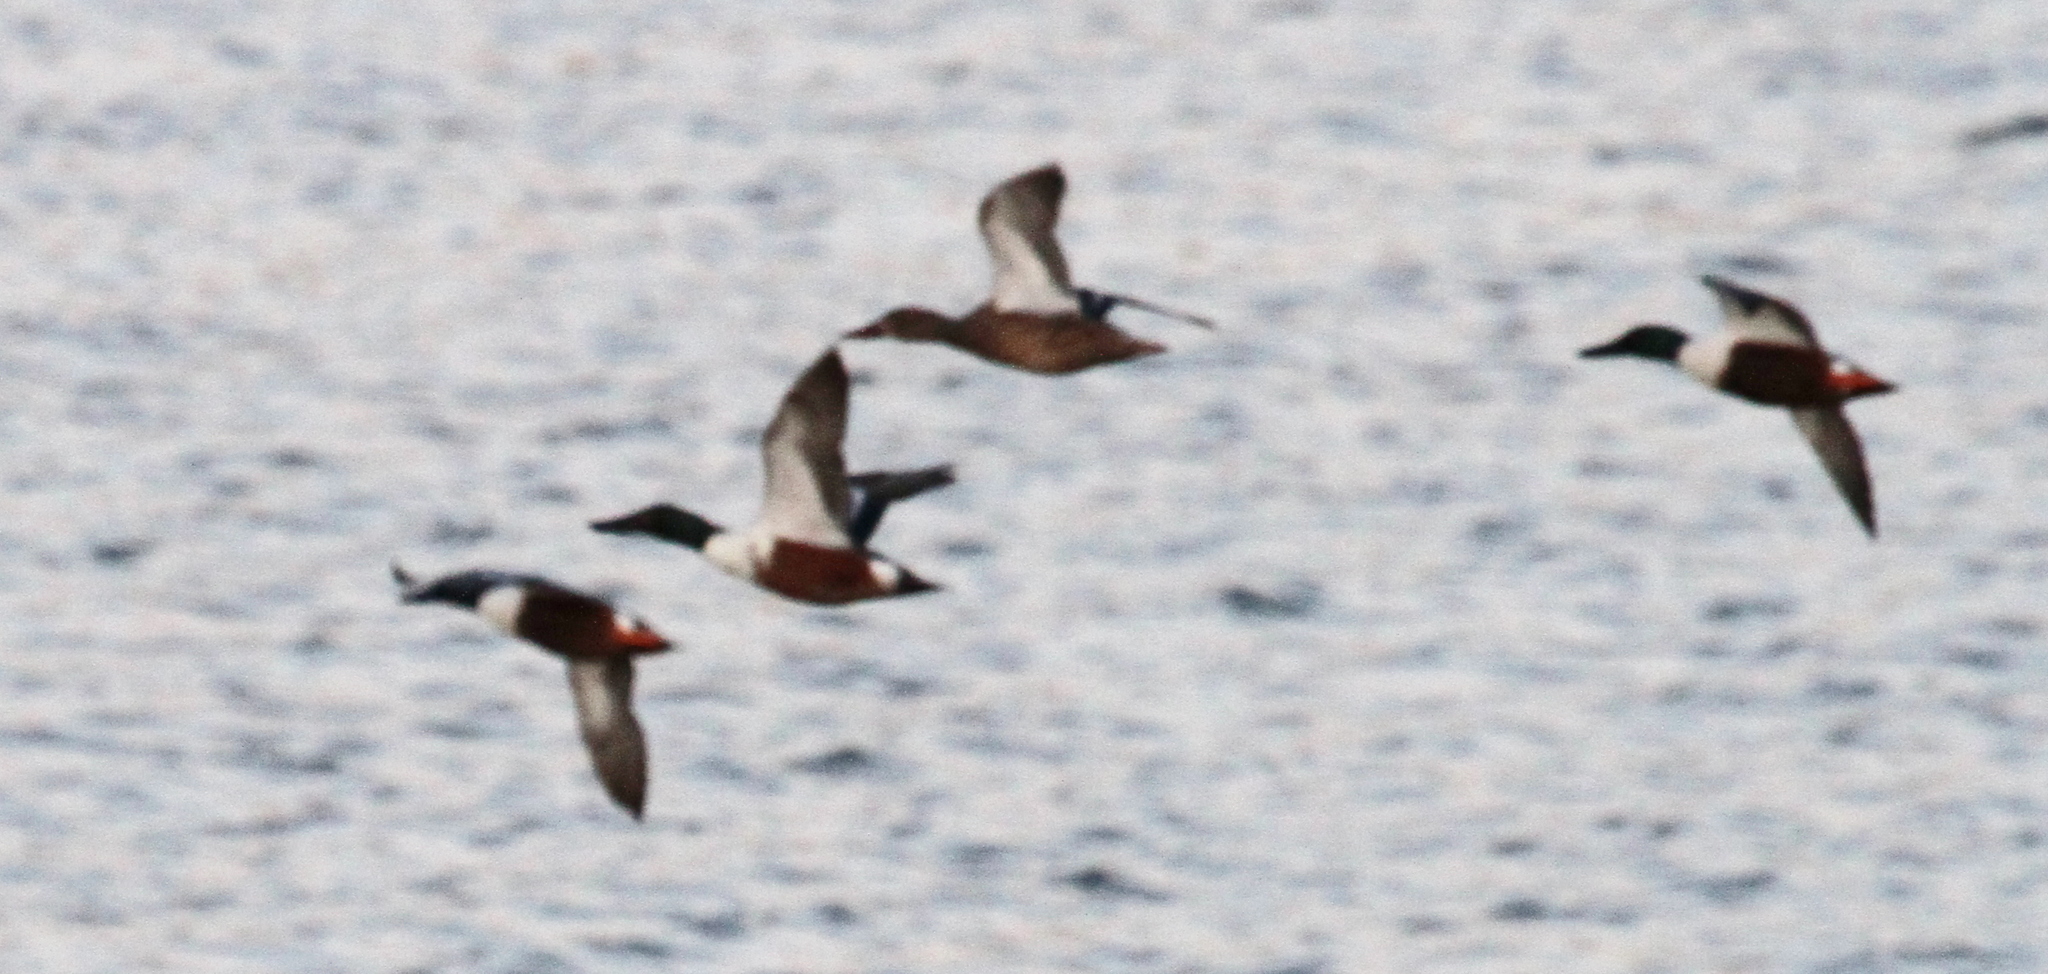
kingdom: Animalia
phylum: Chordata
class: Aves
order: Anseriformes
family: Anatidae
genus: Spatula
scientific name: Spatula clypeata
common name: Northern shoveler
